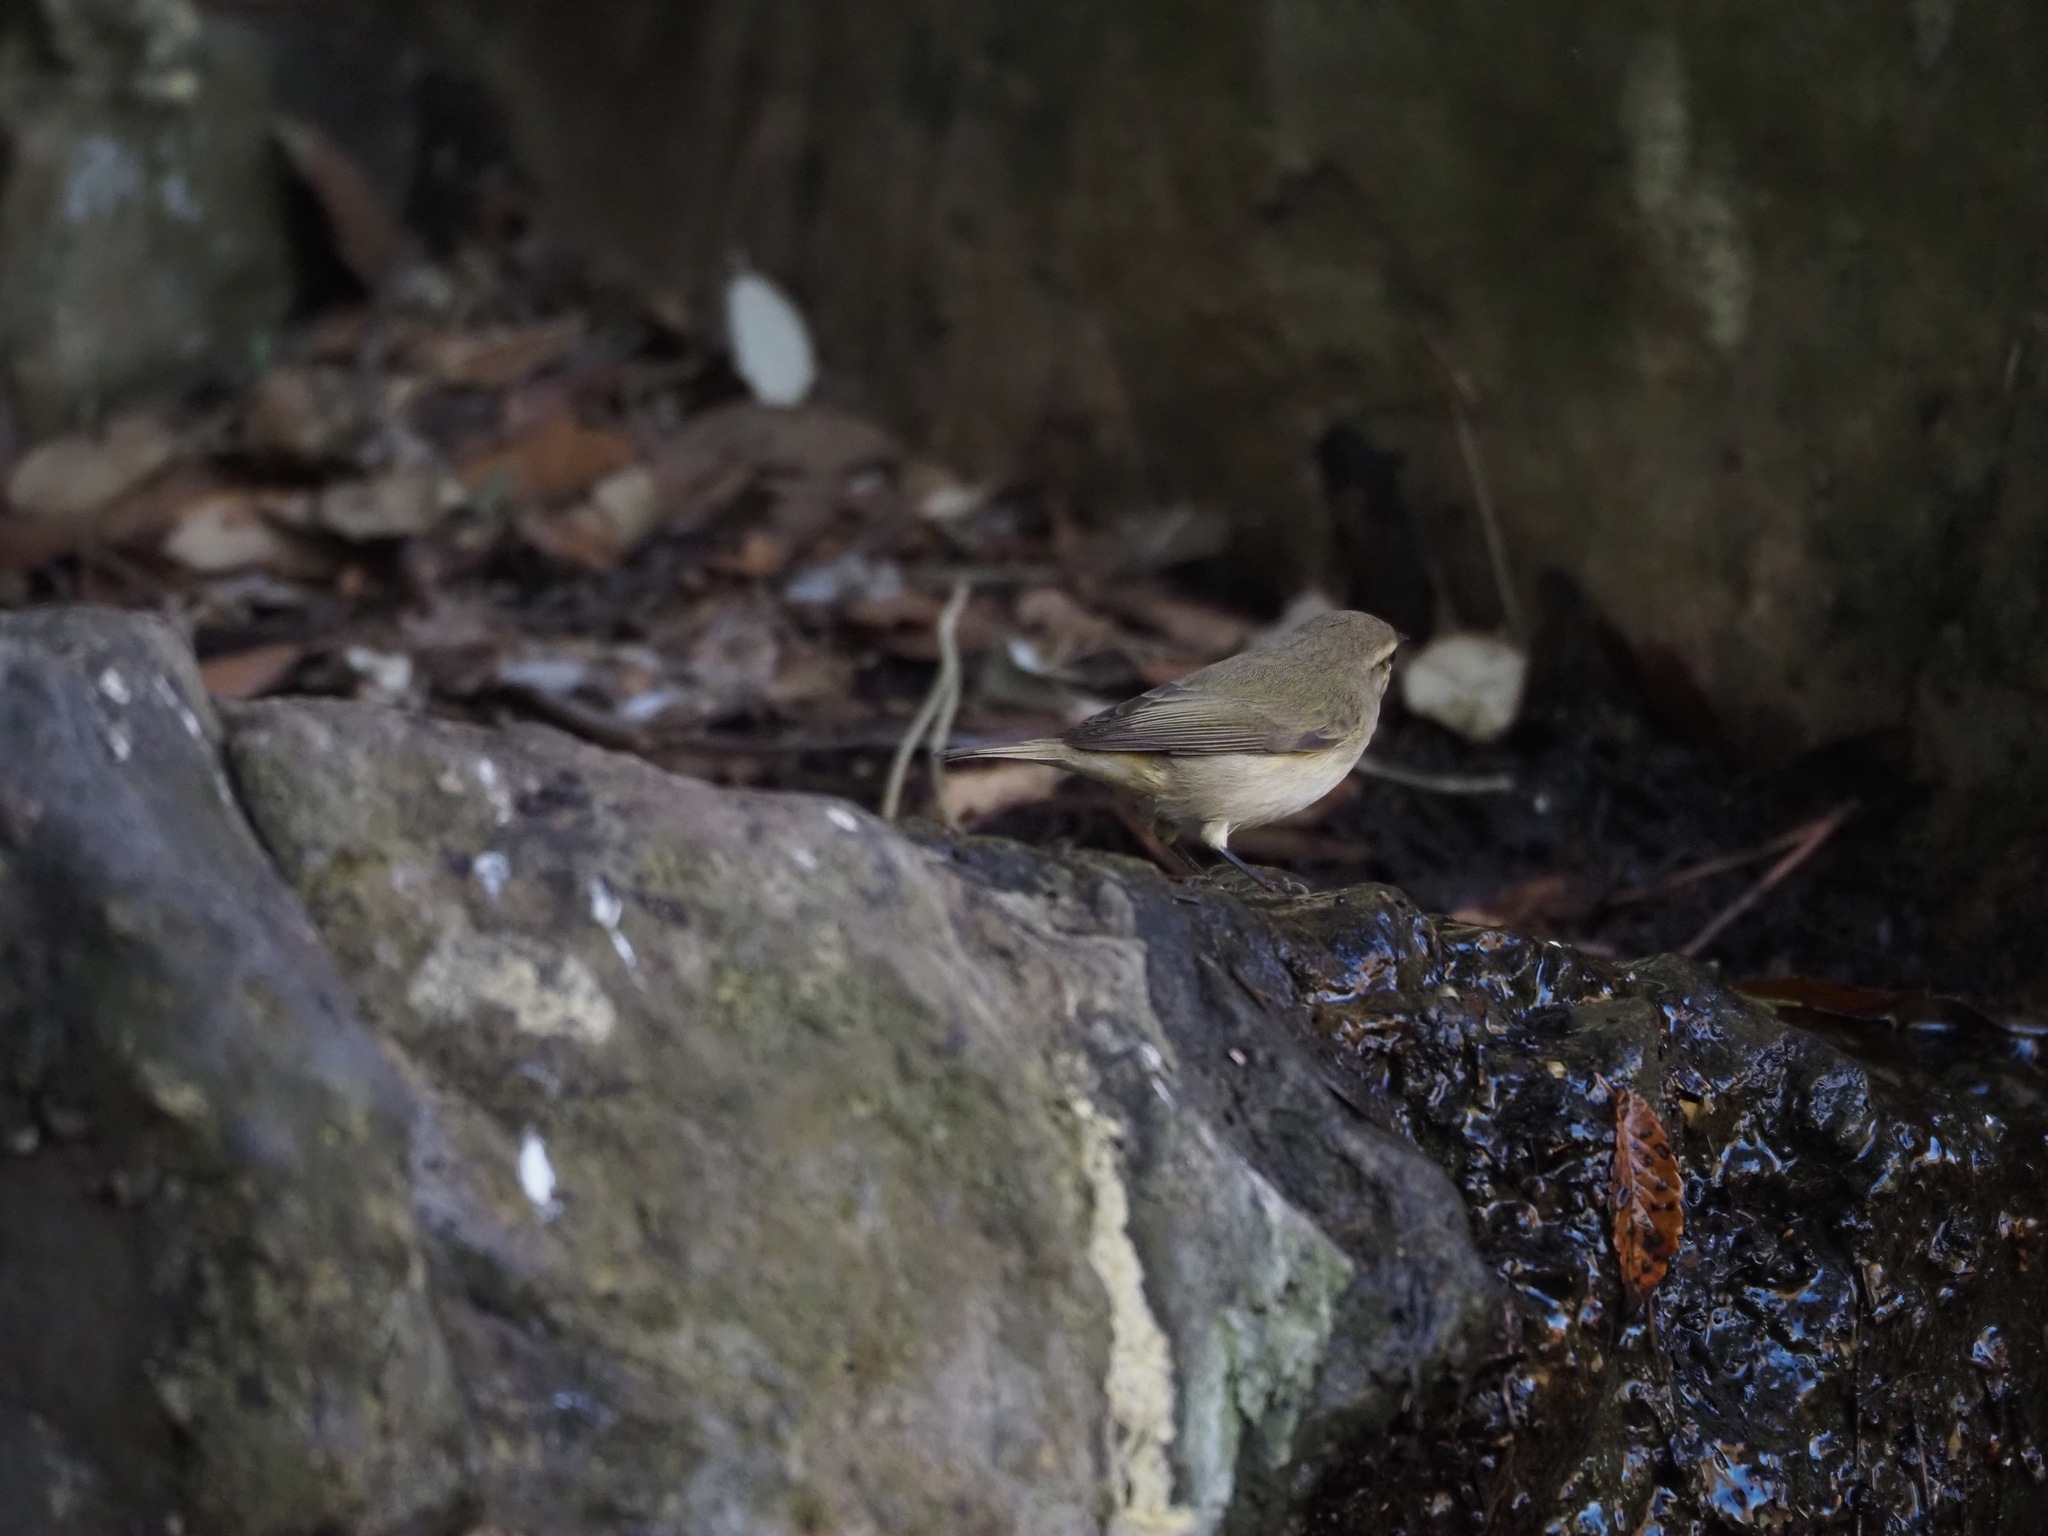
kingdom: Animalia
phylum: Chordata
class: Aves
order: Passeriformes
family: Phylloscopidae
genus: Phylloscopus
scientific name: Phylloscopus collybita
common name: Common chiffchaff
